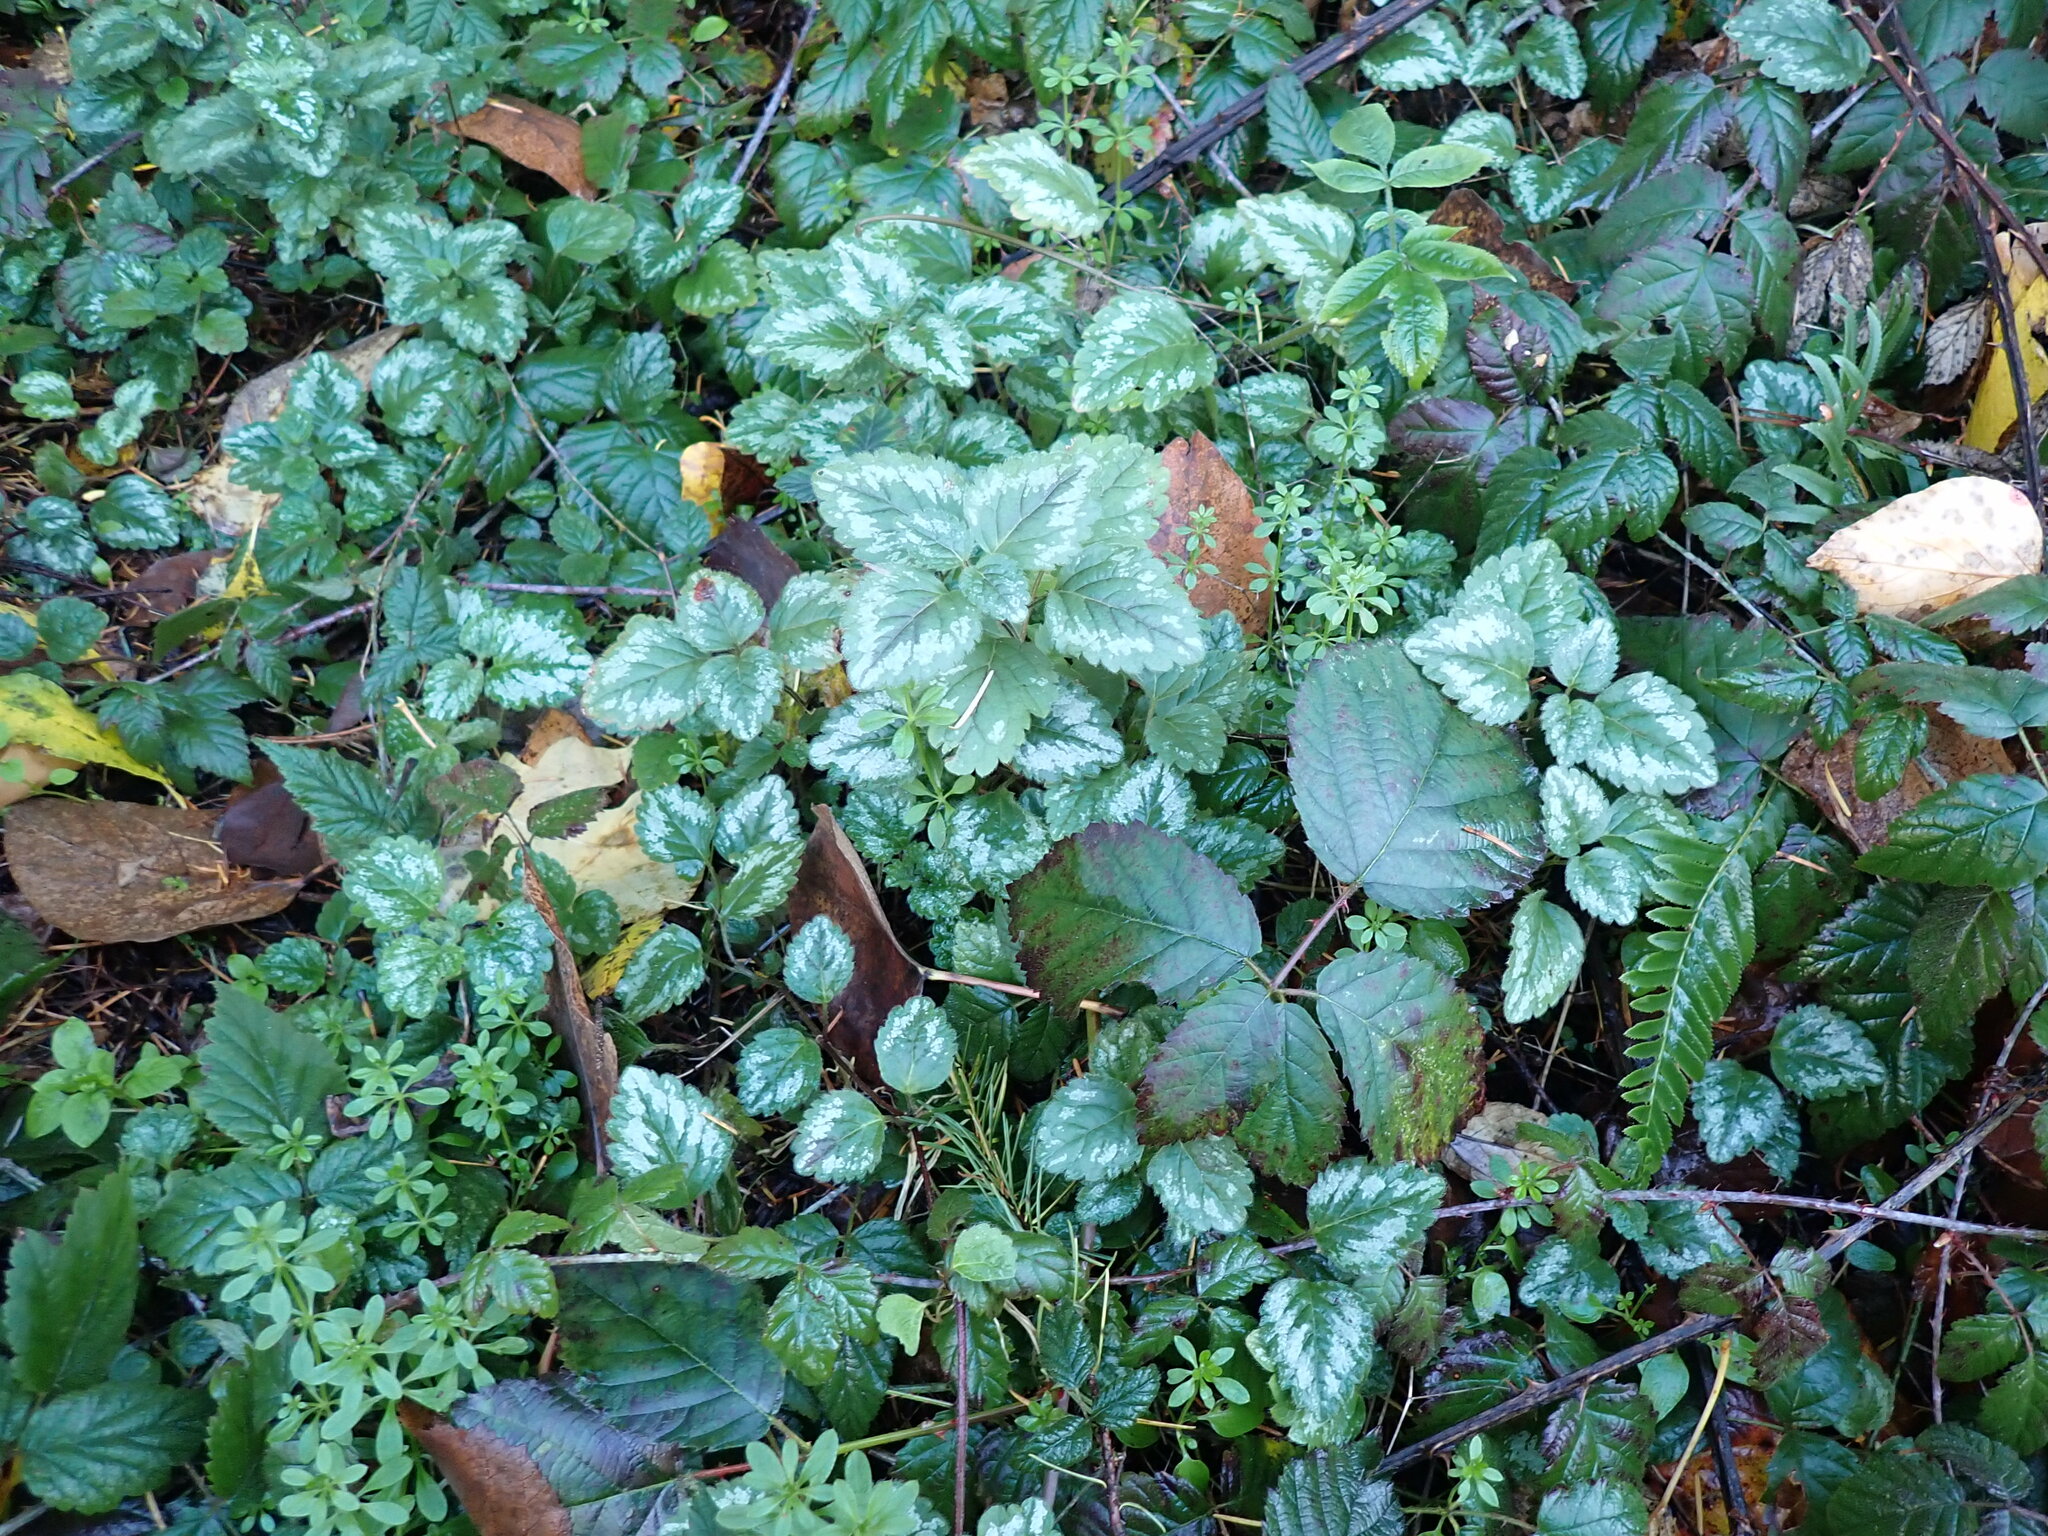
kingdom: Plantae
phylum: Tracheophyta
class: Magnoliopsida
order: Lamiales
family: Lamiaceae
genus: Lamium
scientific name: Lamium galeobdolon
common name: Yellow archangel
